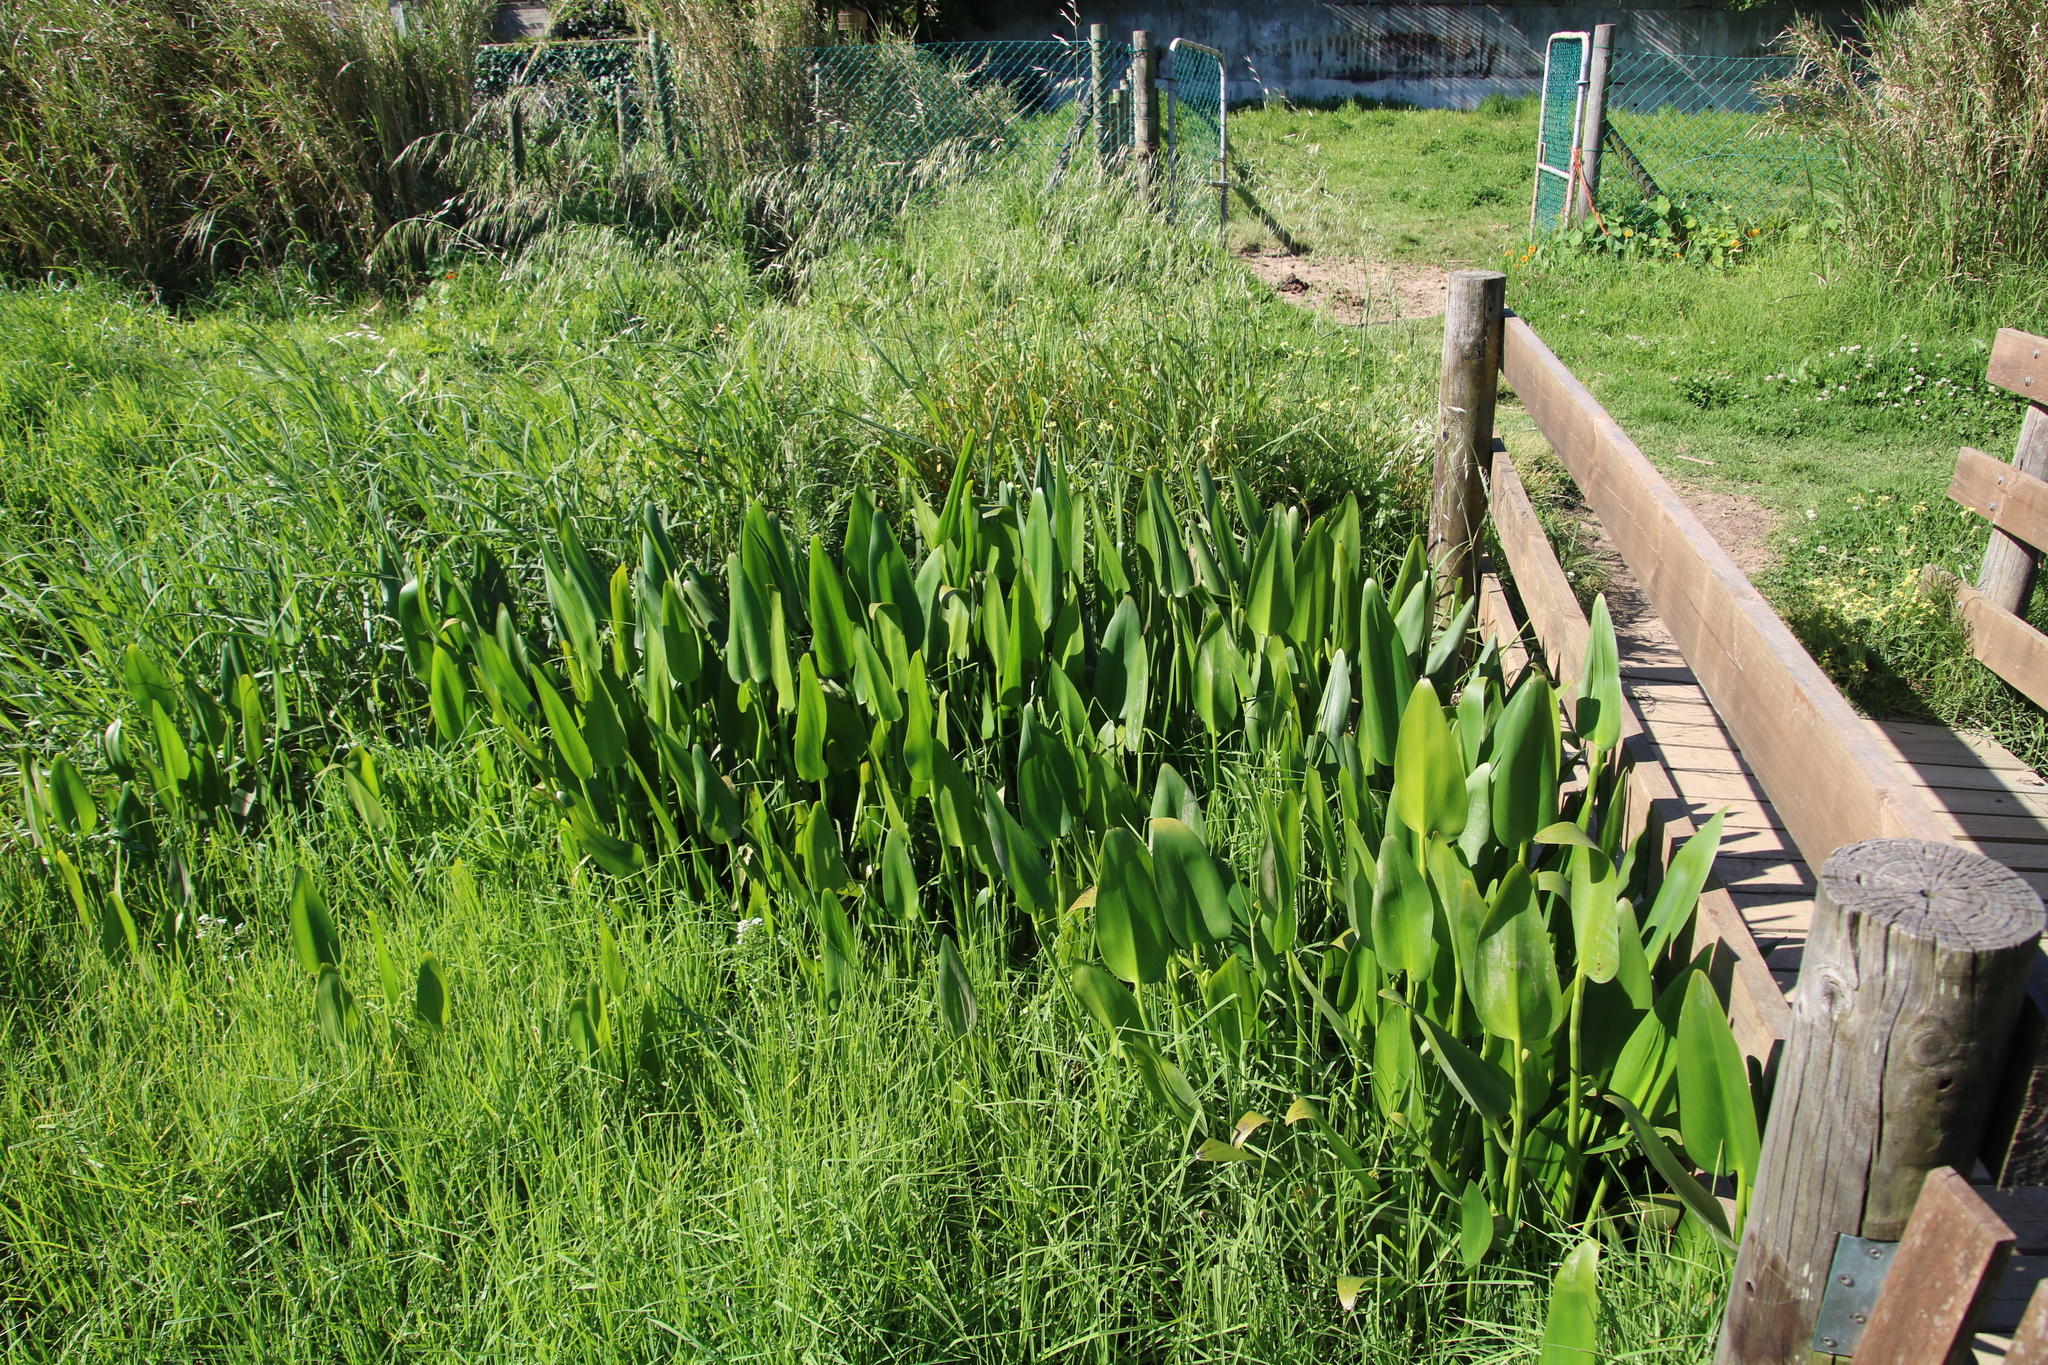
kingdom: Plantae
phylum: Tracheophyta
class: Liliopsida
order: Commelinales
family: Pontederiaceae
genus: Pontederia
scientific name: Pontederia cordata
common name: Pickerelweed
